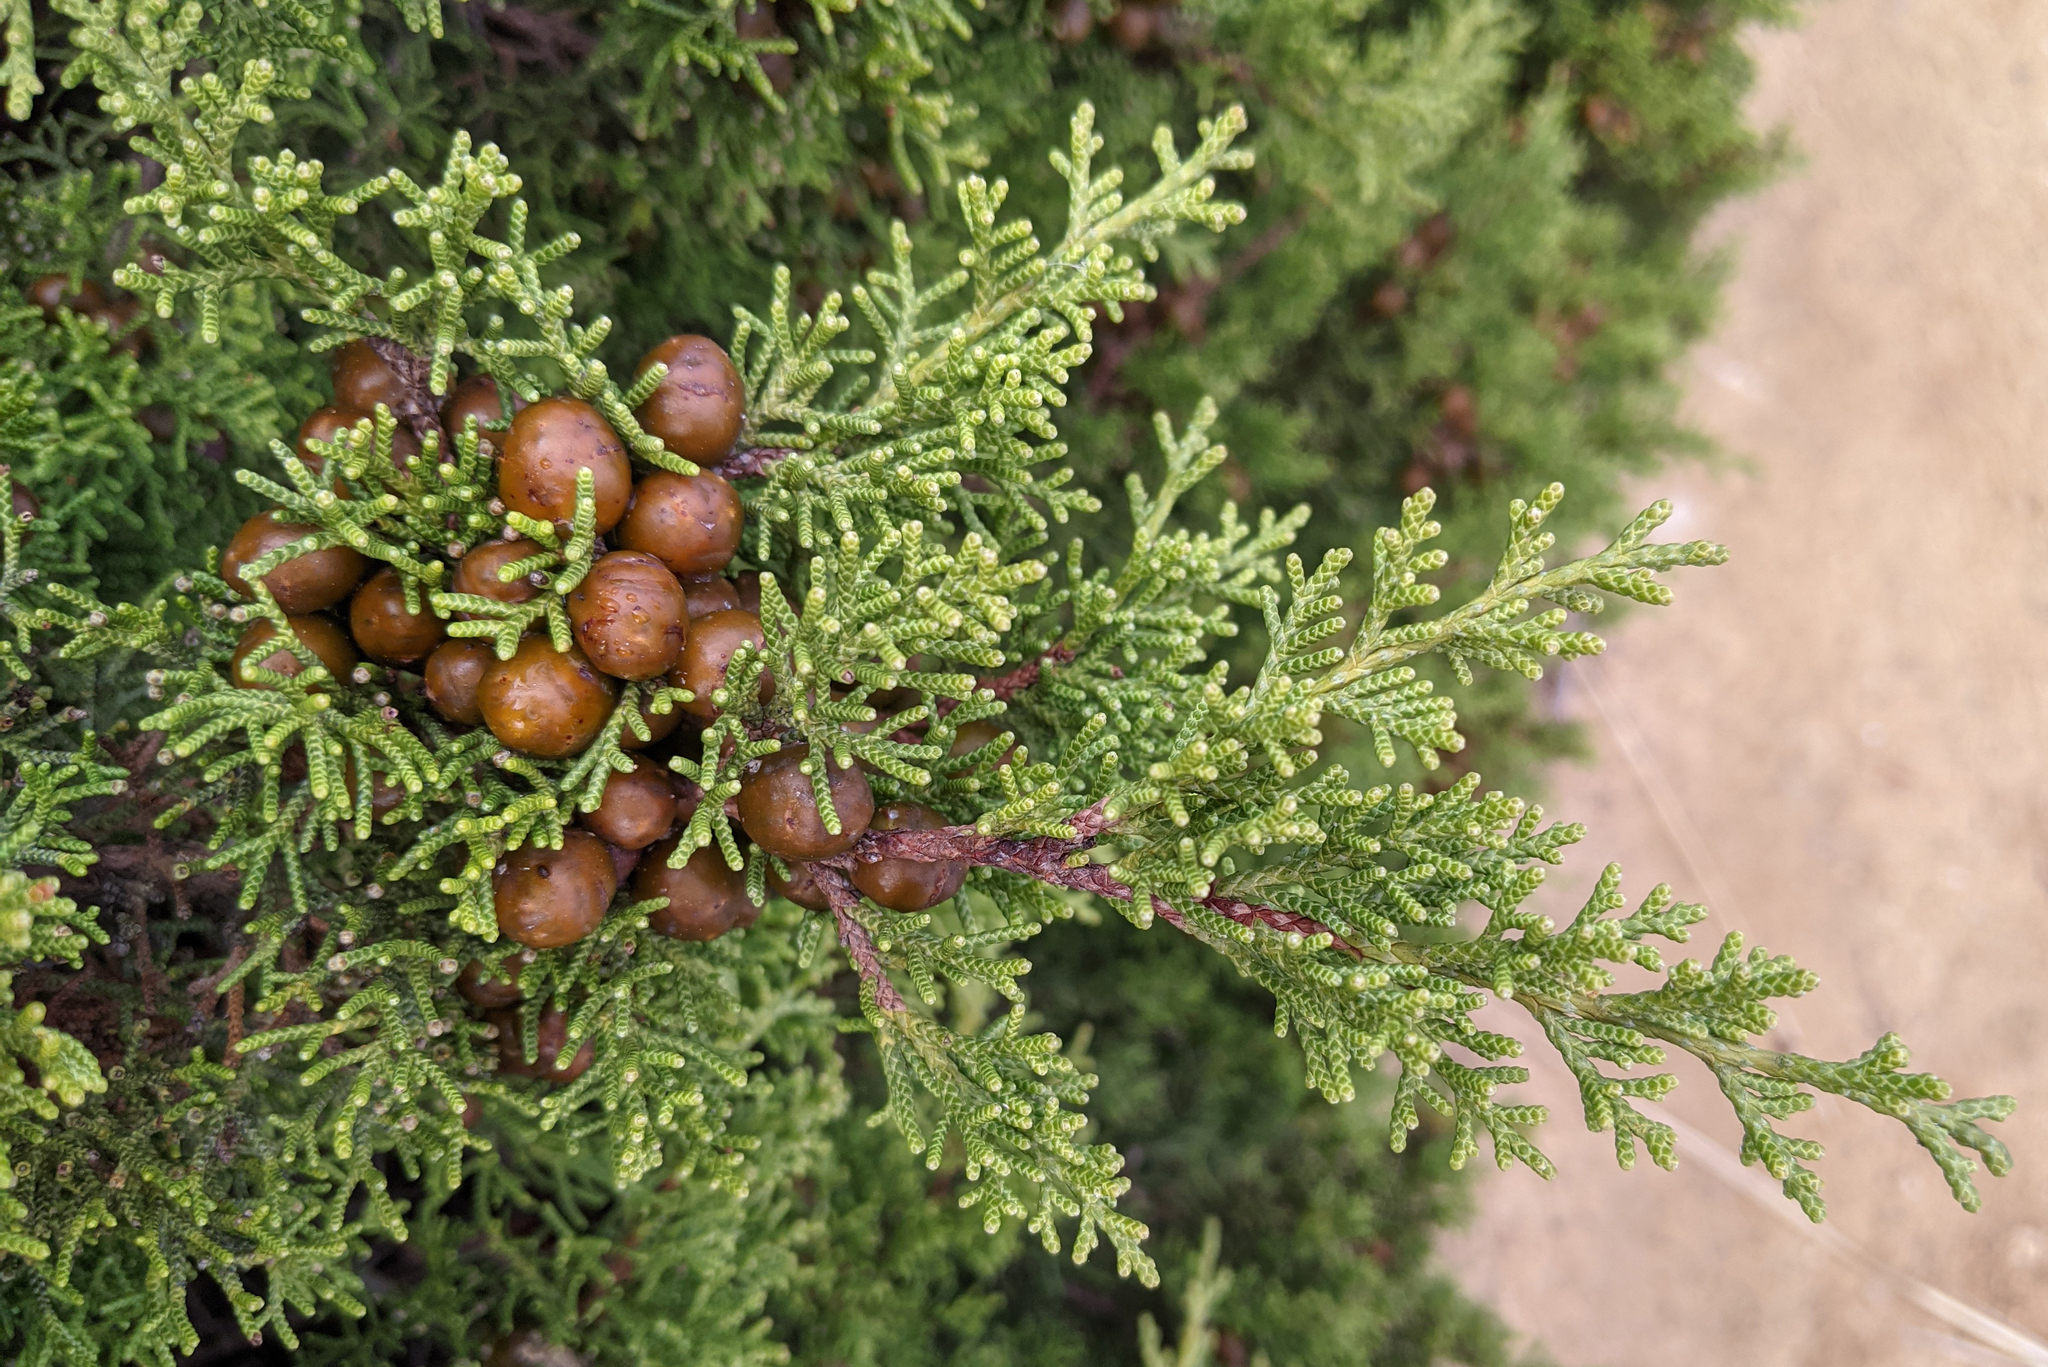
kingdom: Plantae
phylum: Tracheophyta
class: Pinopsida
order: Pinales
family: Cupressaceae
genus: Juniperus
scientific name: Juniperus phoenicea
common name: Phoenician juniper
